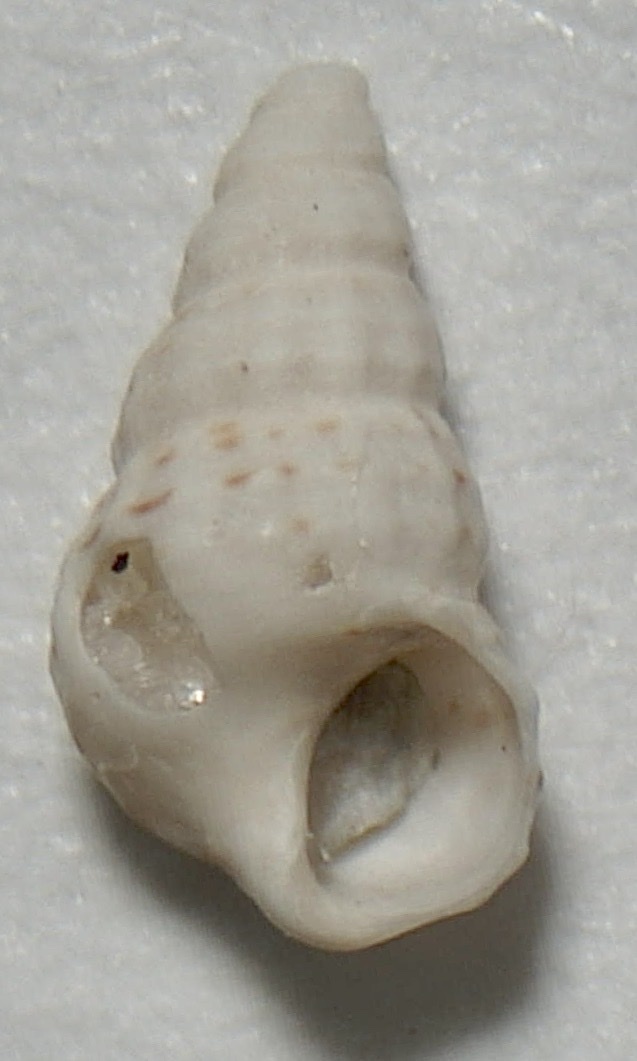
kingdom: Animalia
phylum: Mollusca
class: Gastropoda
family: Cerithiidae
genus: Cerithium
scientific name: Cerithium muscarum
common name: Fly-specked cerith
